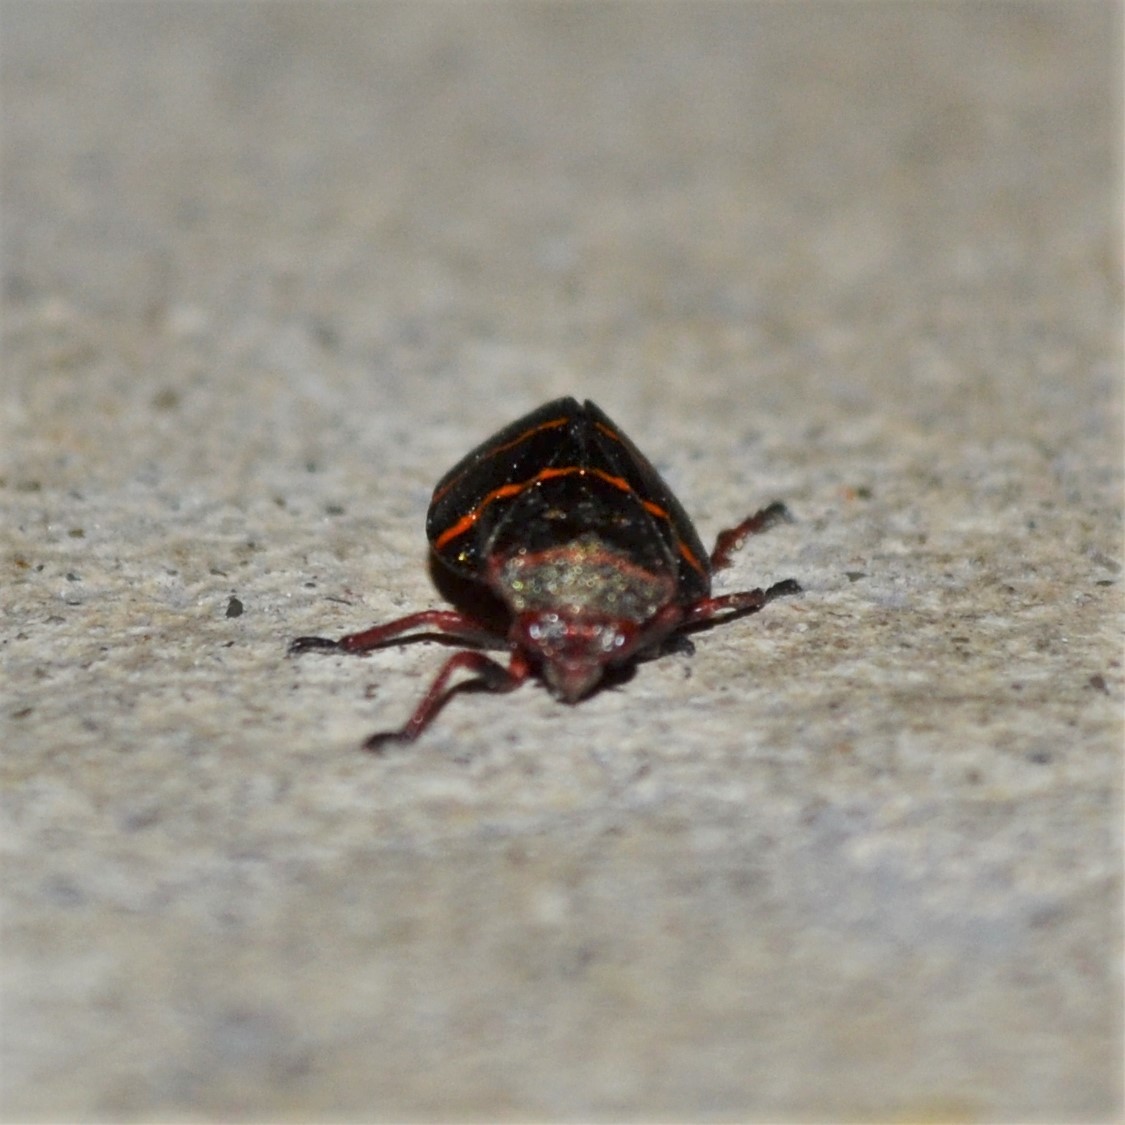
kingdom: Animalia
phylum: Arthropoda
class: Insecta
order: Hemiptera
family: Cercopidae
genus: Prosapia
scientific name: Prosapia bicincta
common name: Twolined spittlebug
